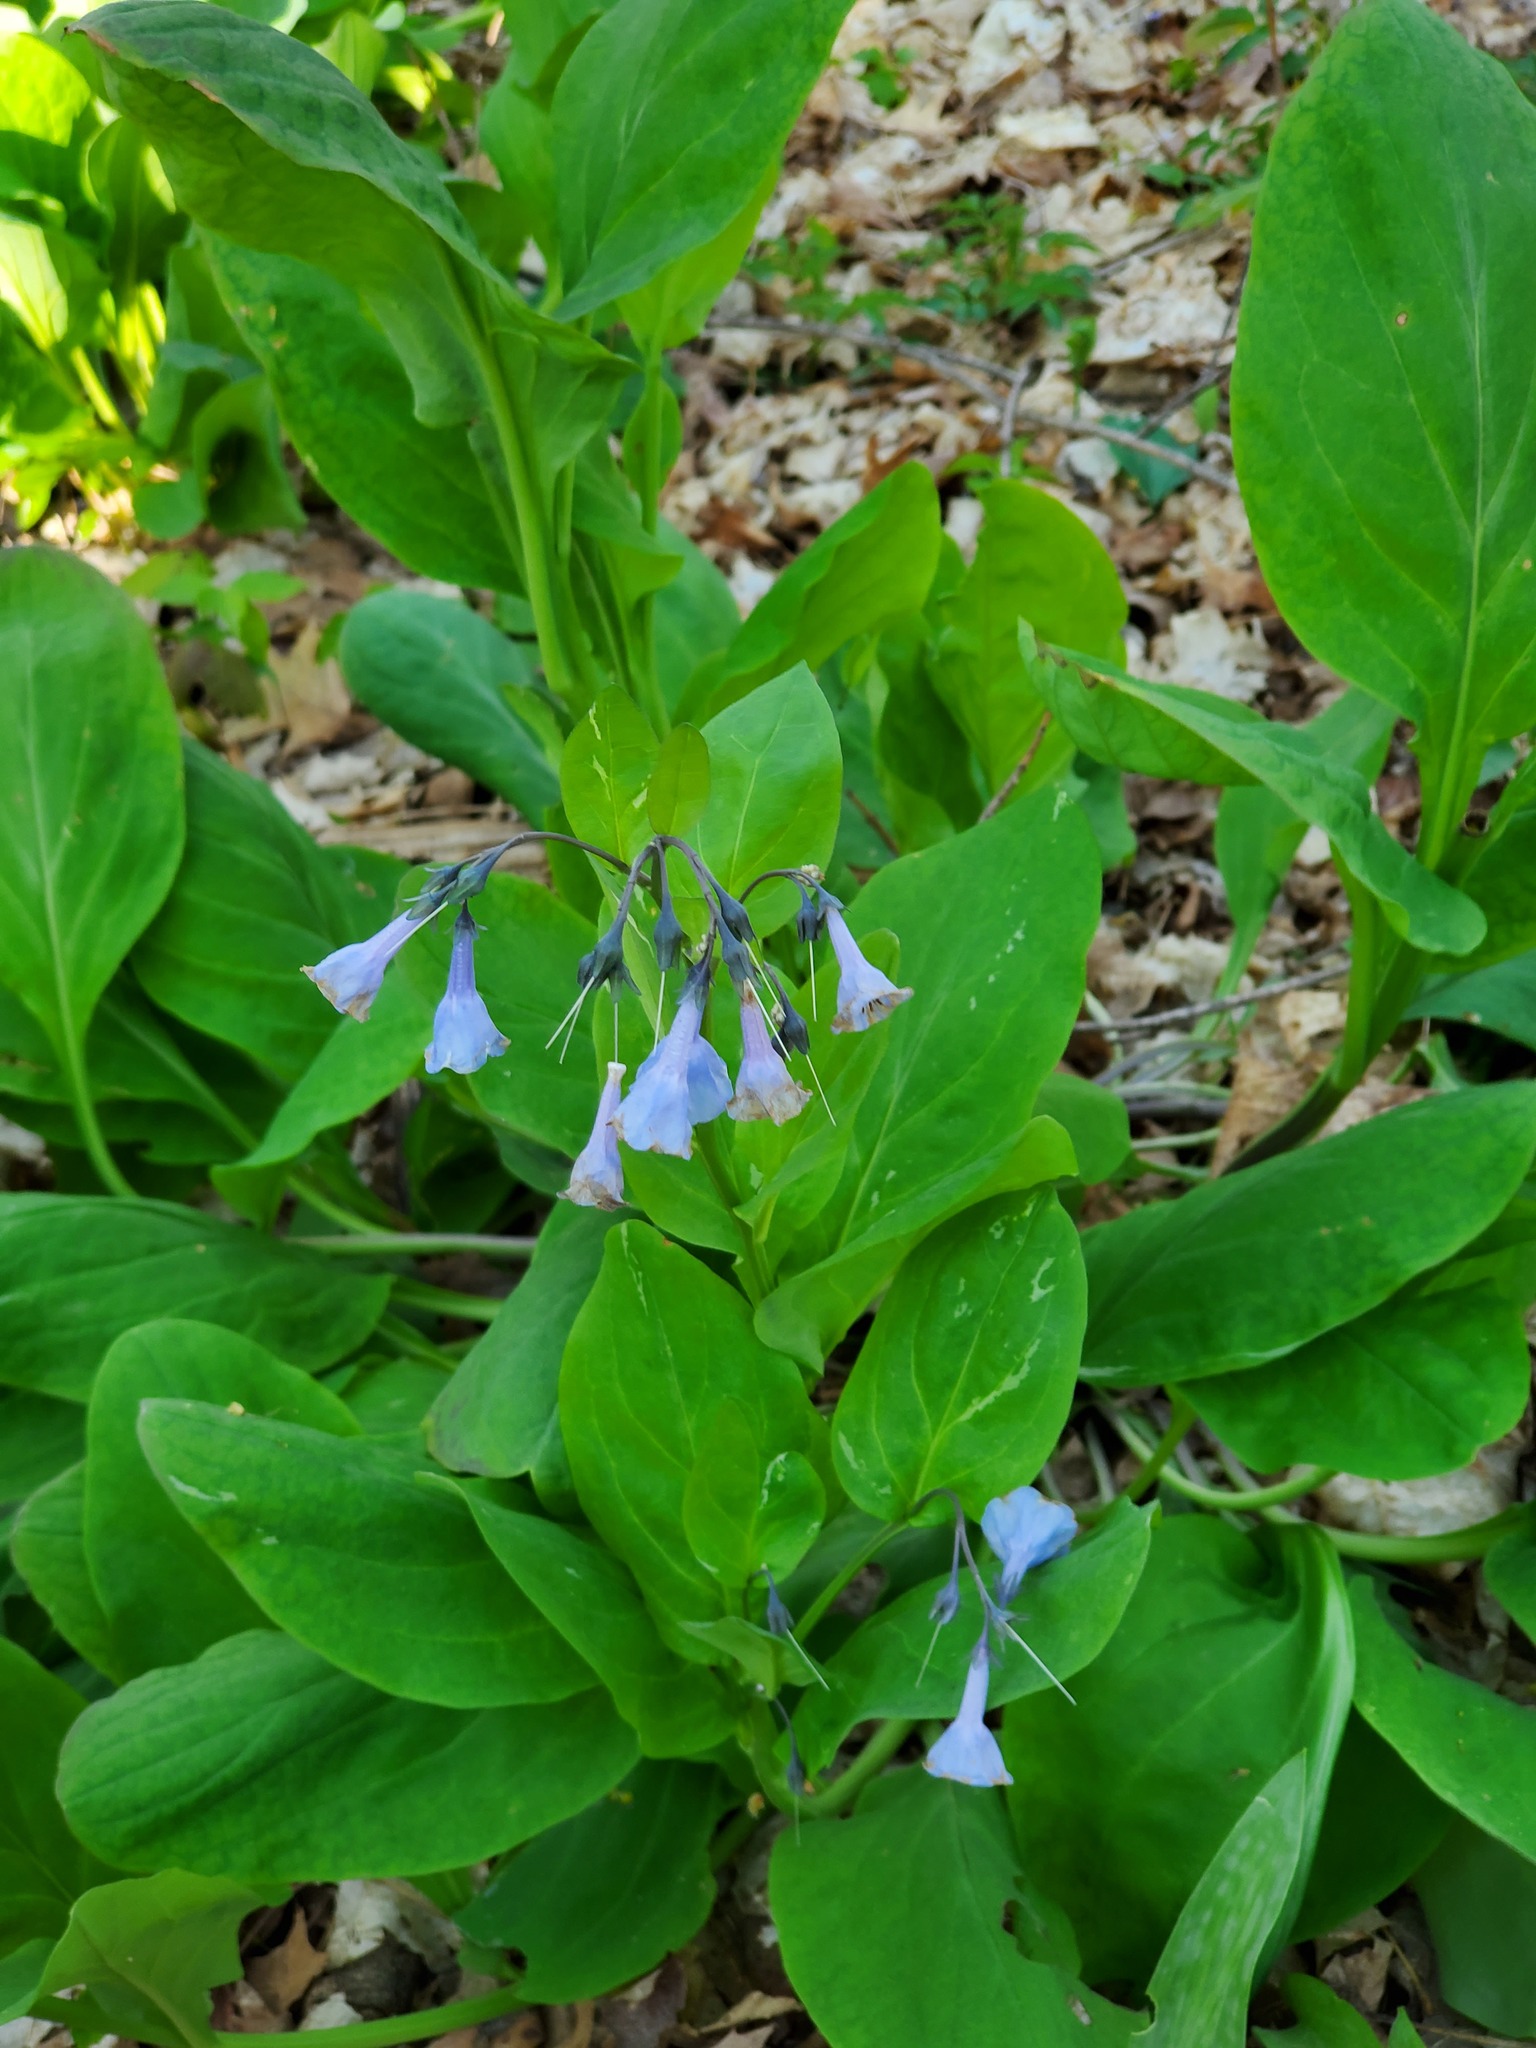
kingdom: Plantae
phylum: Tracheophyta
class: Magnoliopsida
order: Boraginales
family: Boraginaceae
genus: Mertensia
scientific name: Mertensia virginica
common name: Virginia bluebells
